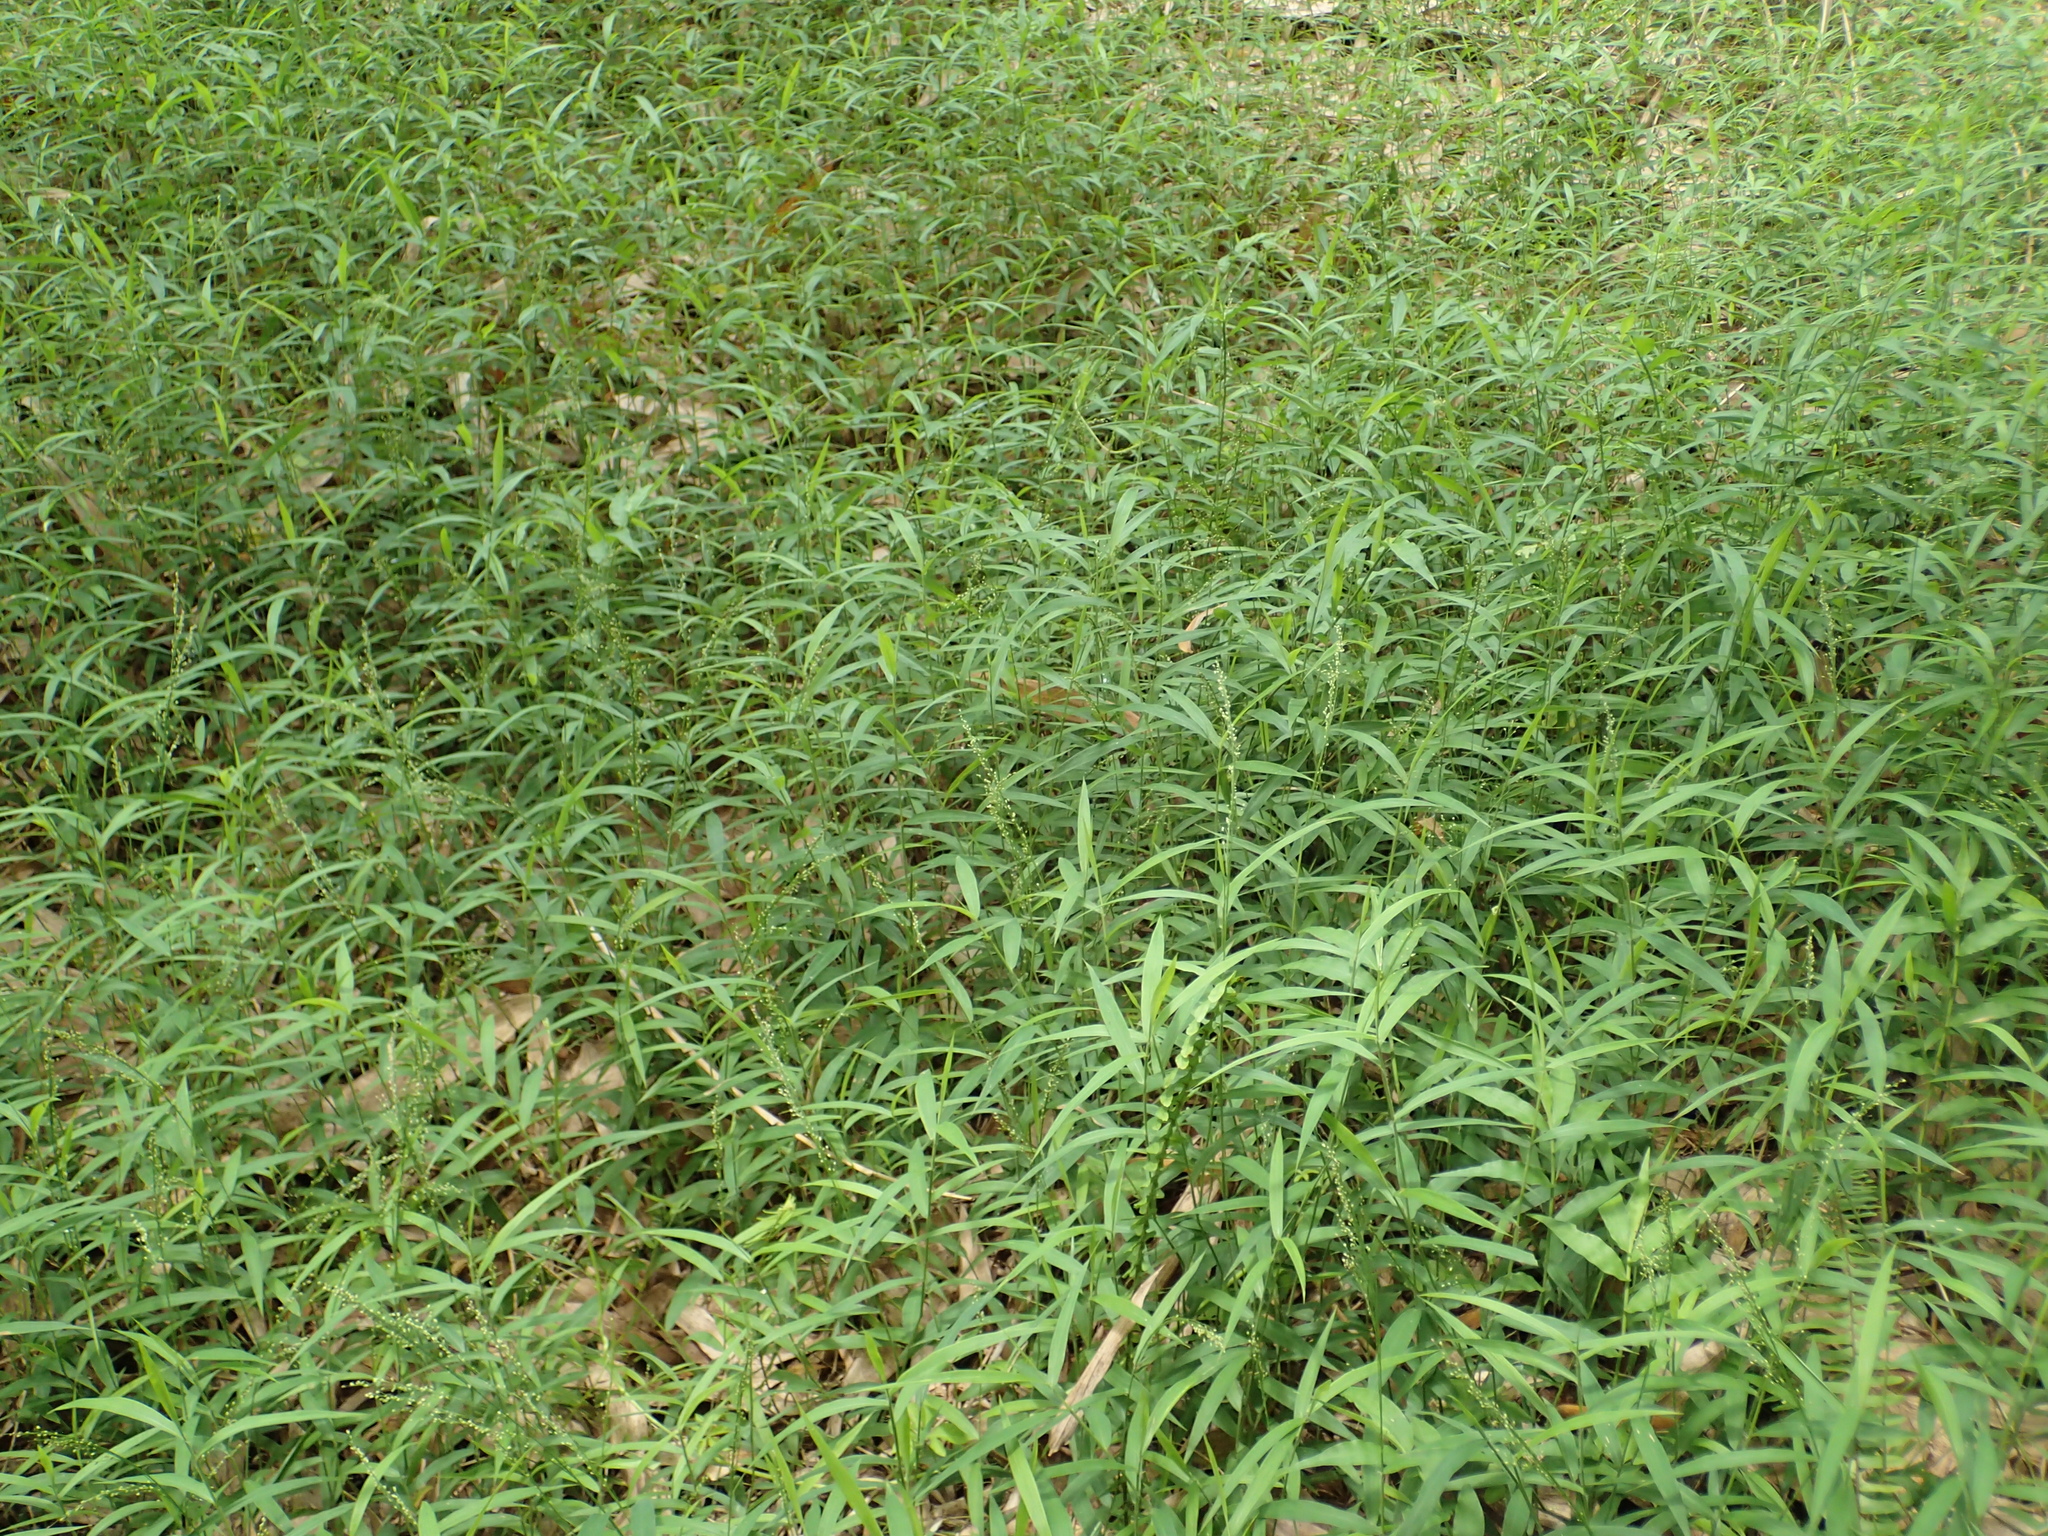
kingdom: Plantae
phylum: Tracheophyta
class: Liliopsida
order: Poales
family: Poaceae
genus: Cyrtococcum
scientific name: Cyrtococcum patens
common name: Broad-leaved bowgrass
